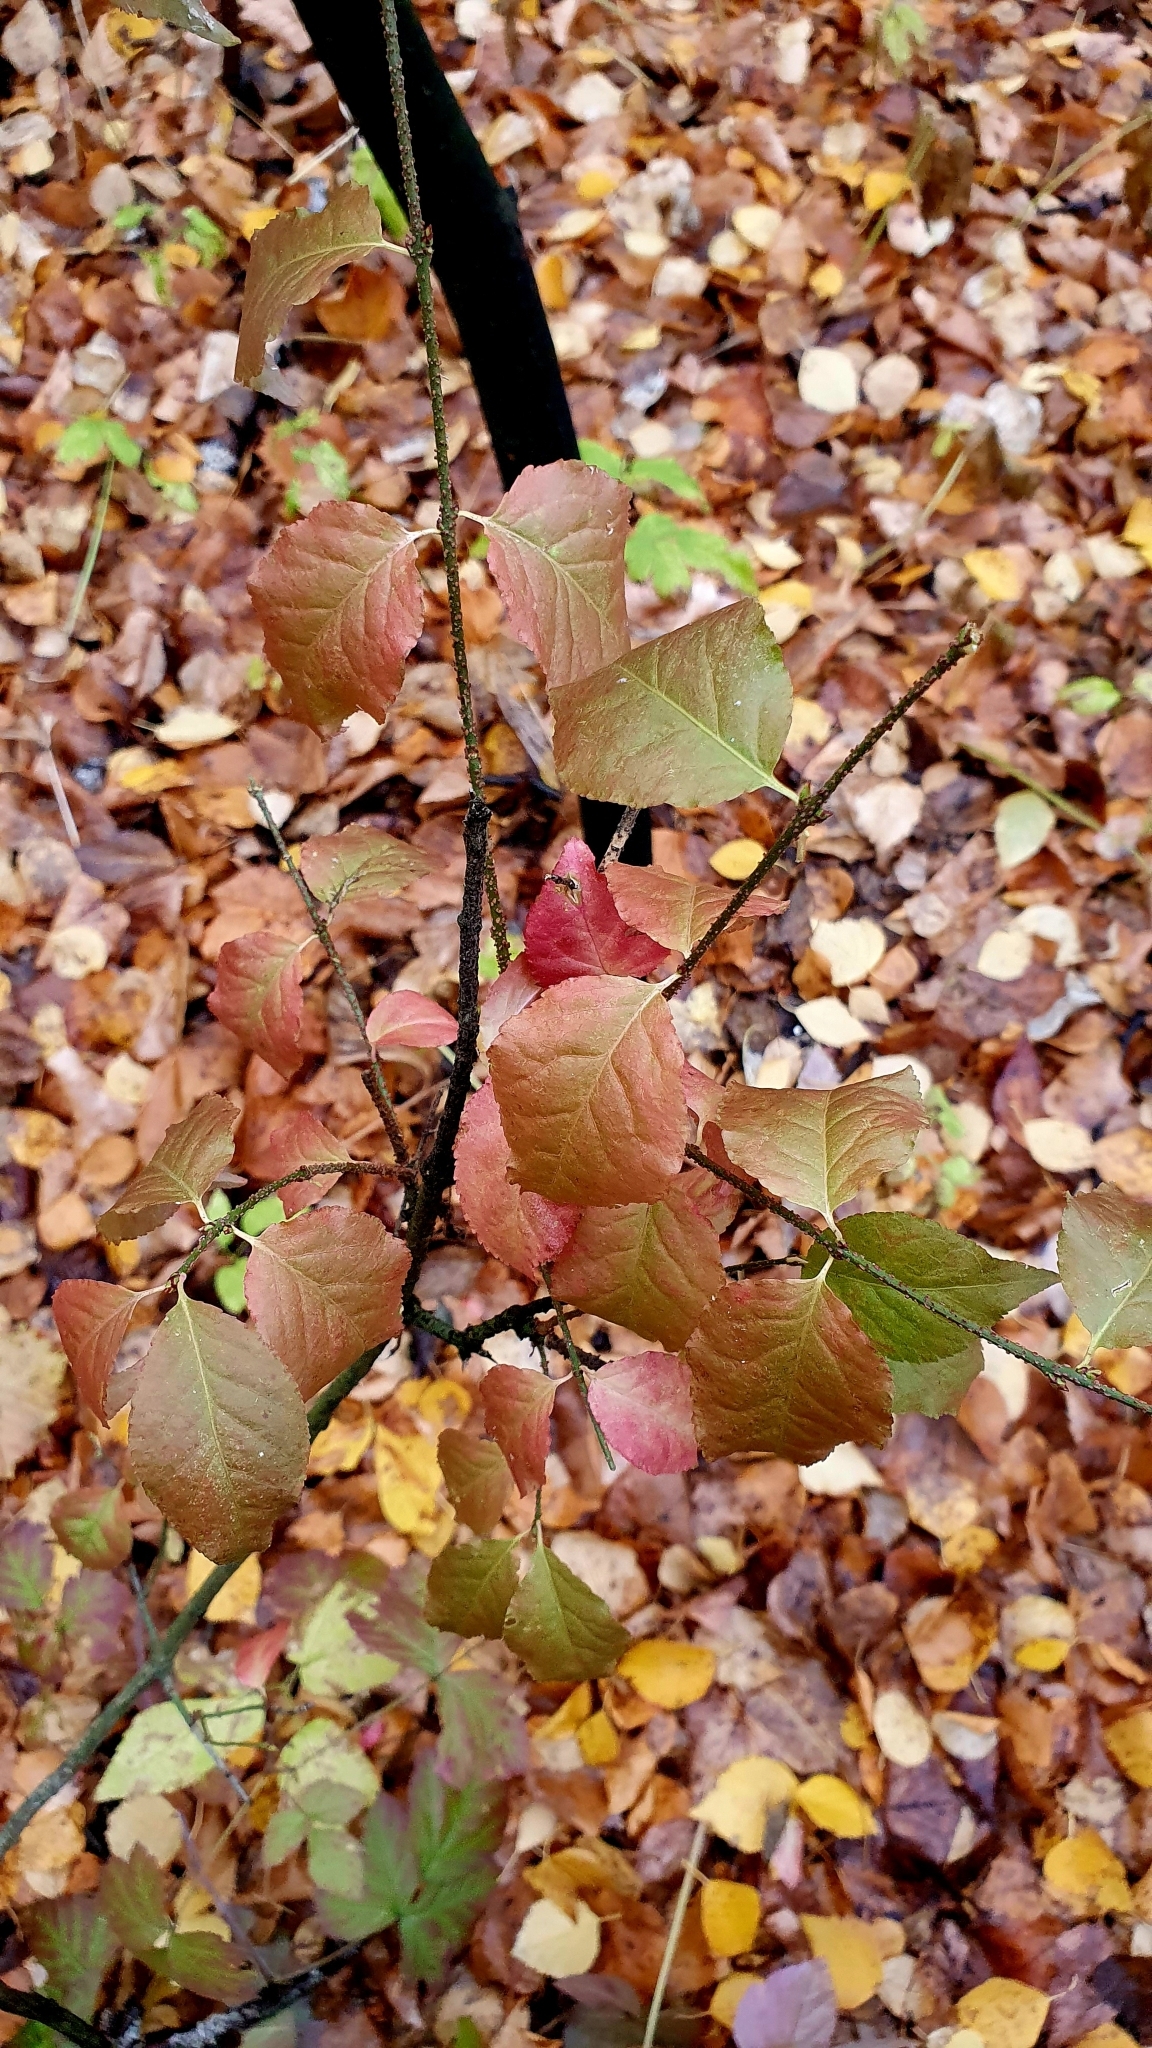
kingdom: Plantae
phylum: Tracheophyta
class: Magnoliopsida
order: Celastrales
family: Celastraceae
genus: Euonymus
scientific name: Euonymus verrucosus
